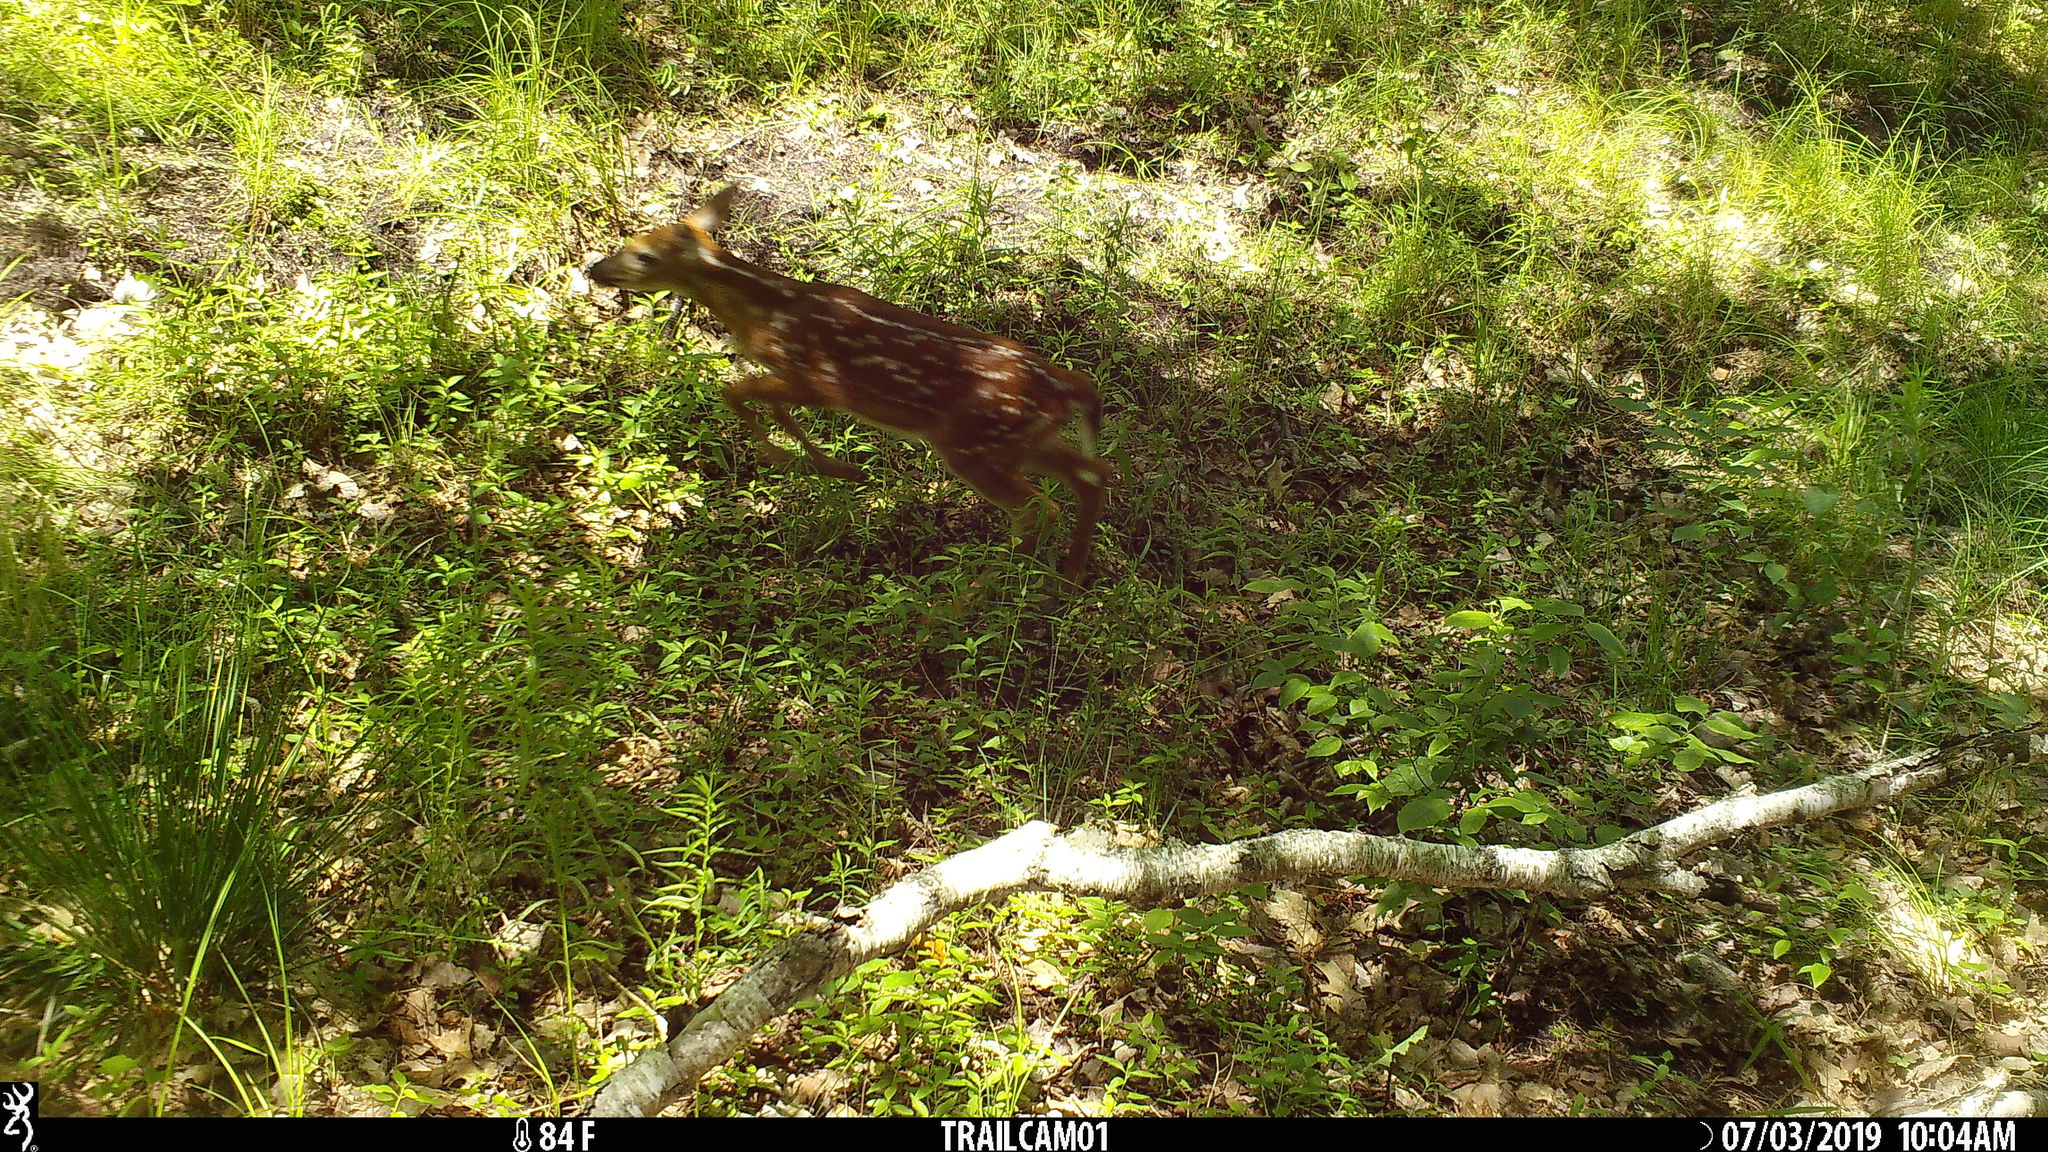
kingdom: Animalia
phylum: Chordata
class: Mammalia
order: Artiodactyla
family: Cervidae
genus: Odocoileus
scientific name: Odocoileus virginianus
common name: White-tailed deer
